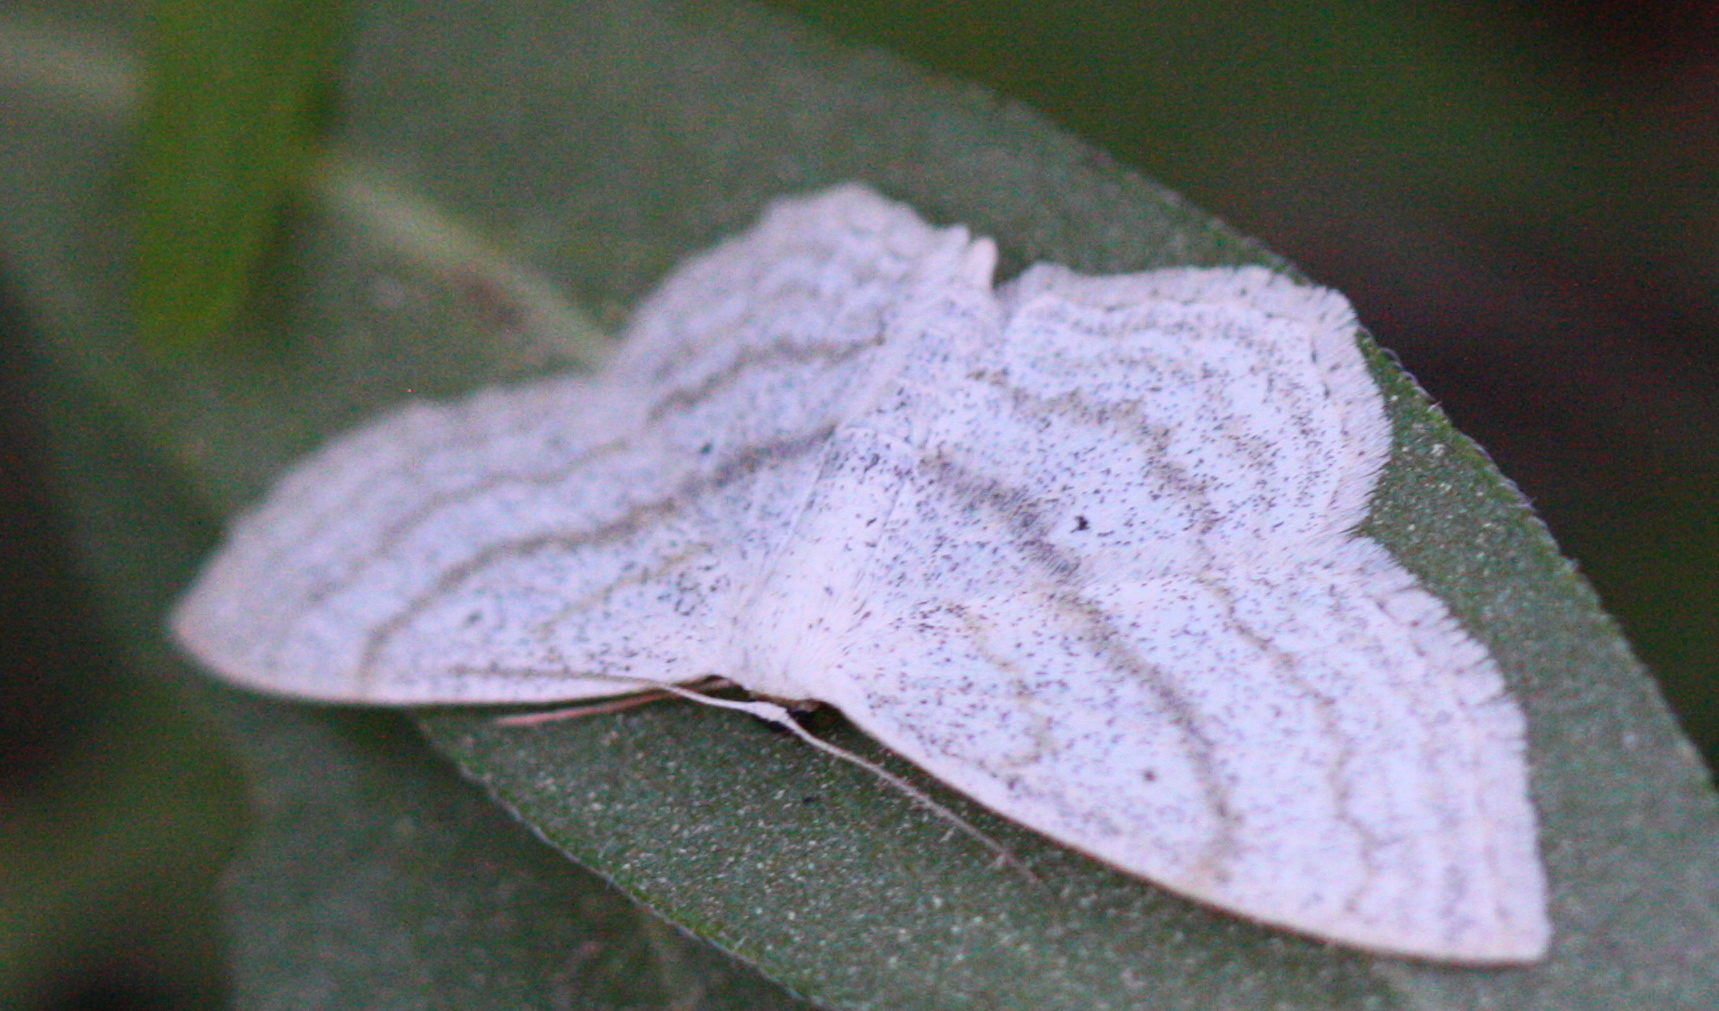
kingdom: Animalia
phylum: Arthropoda
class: Insecta
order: Lepidoptera
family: Geometridae
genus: Scopula
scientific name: Scopula ancellata
